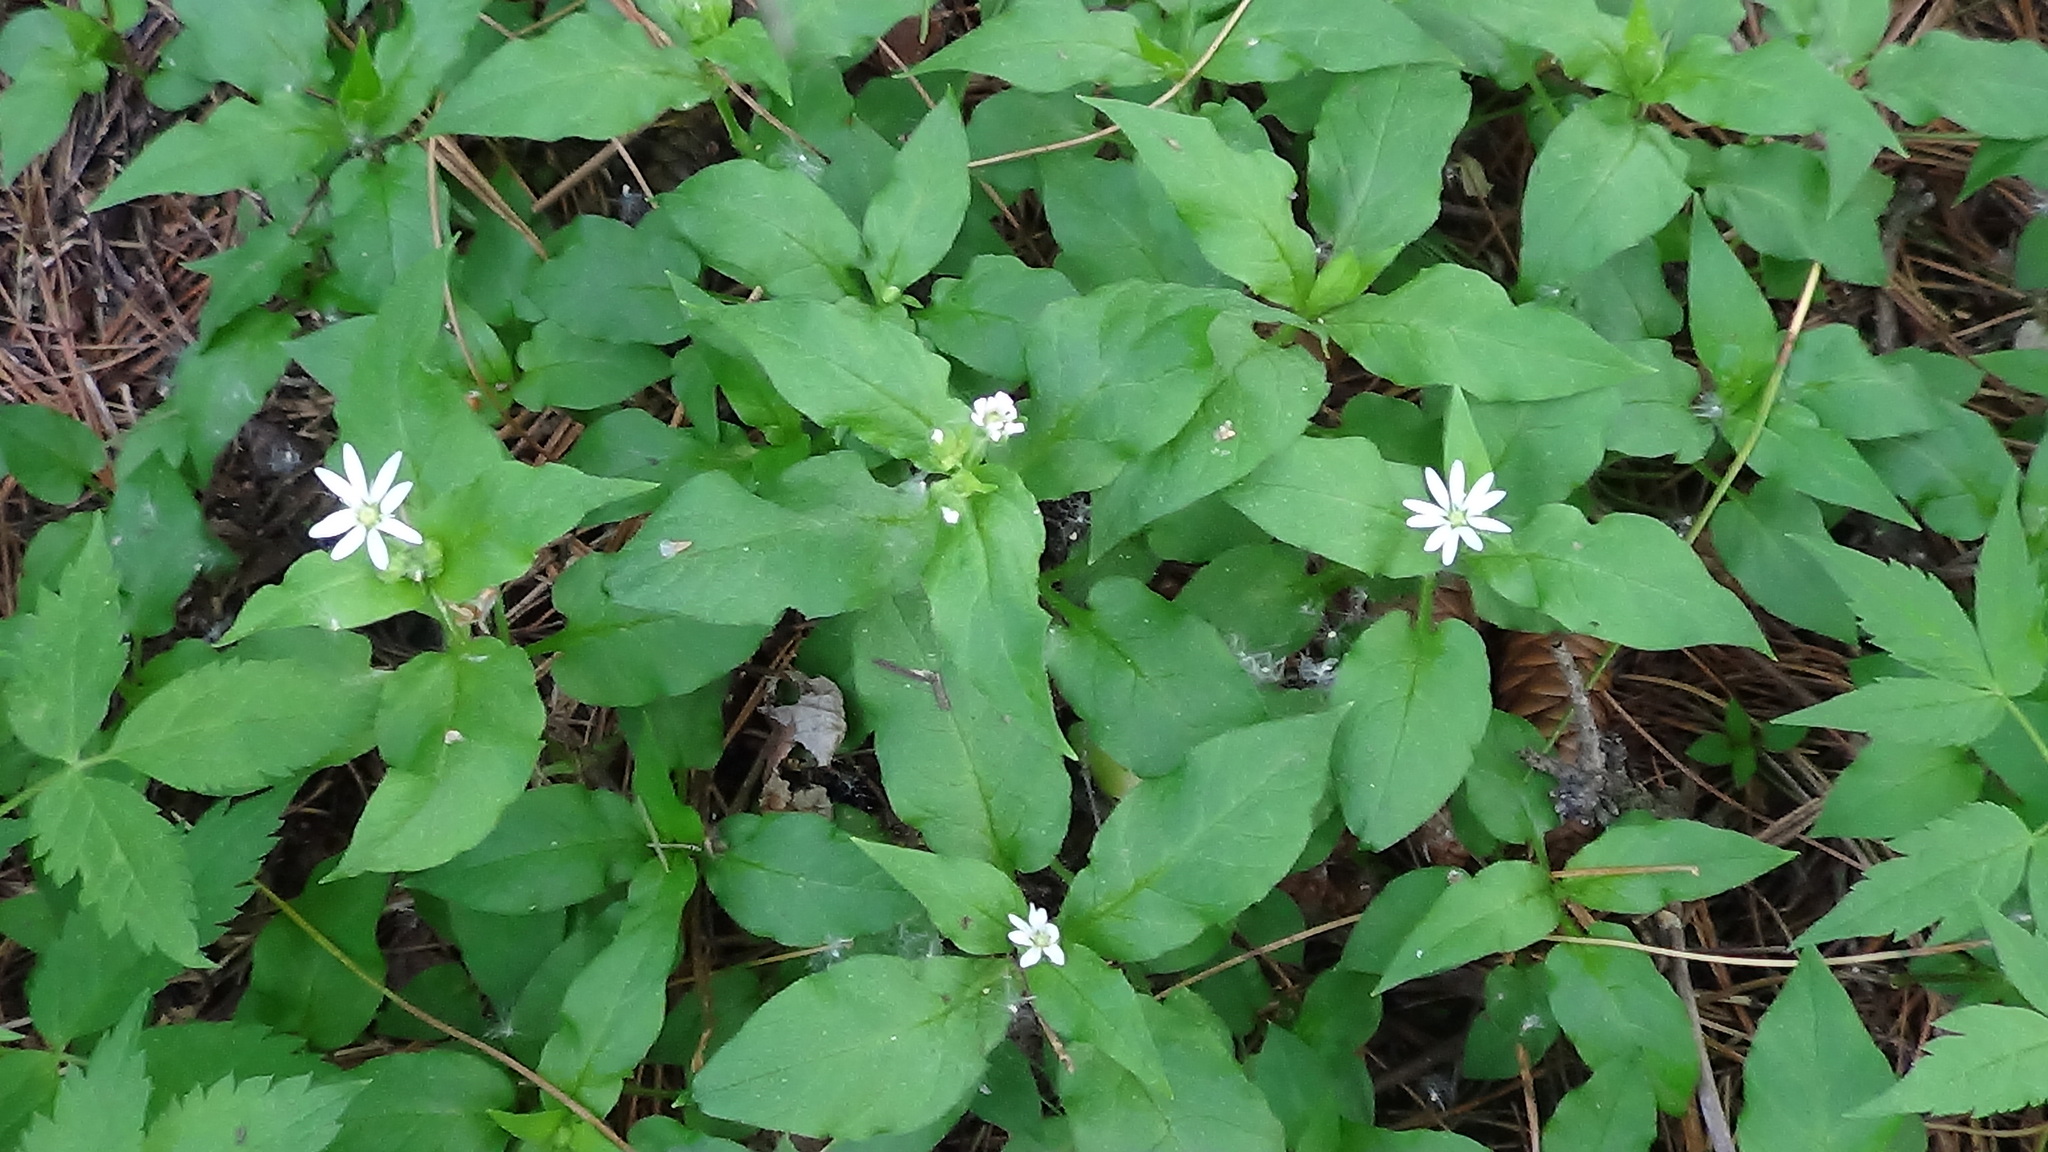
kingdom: Plantae
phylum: Tracheophyta
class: Magnoliopsida
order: Caryophyllales
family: Caryophyllaceae
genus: Stellaria
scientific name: Stellaria bungeana
